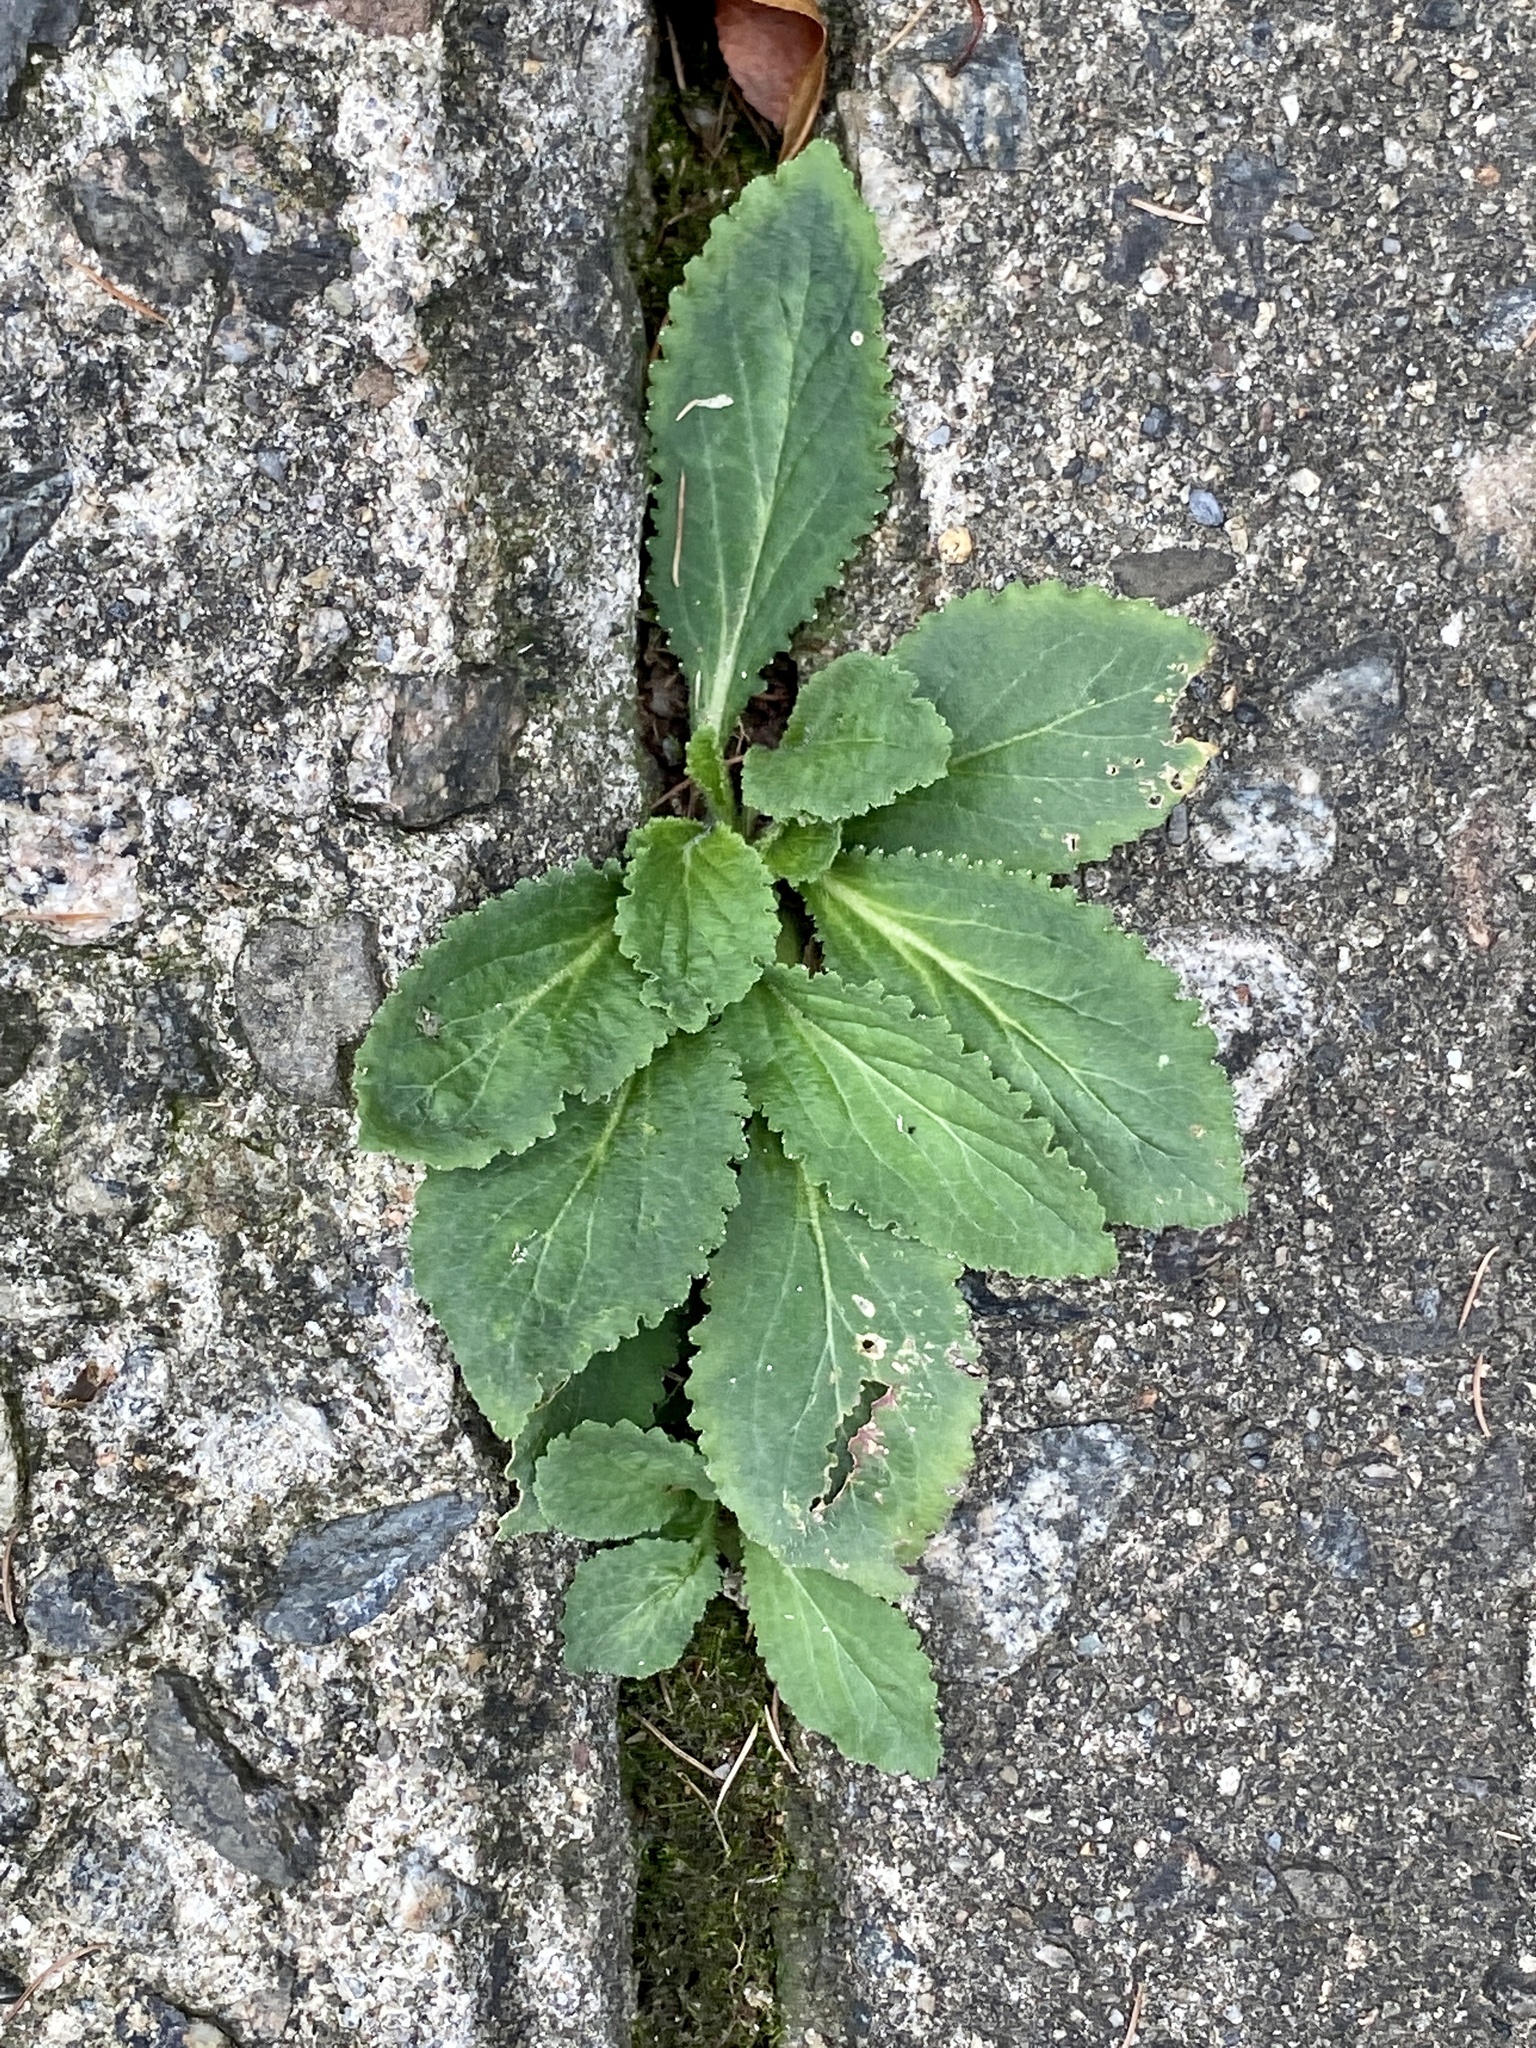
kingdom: Plantae
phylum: Tracheophyta
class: Magnoliopsida
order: Asterales
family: Campanulaceae
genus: Lobelia
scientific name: Lobelia inflata
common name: Indian tobacco
